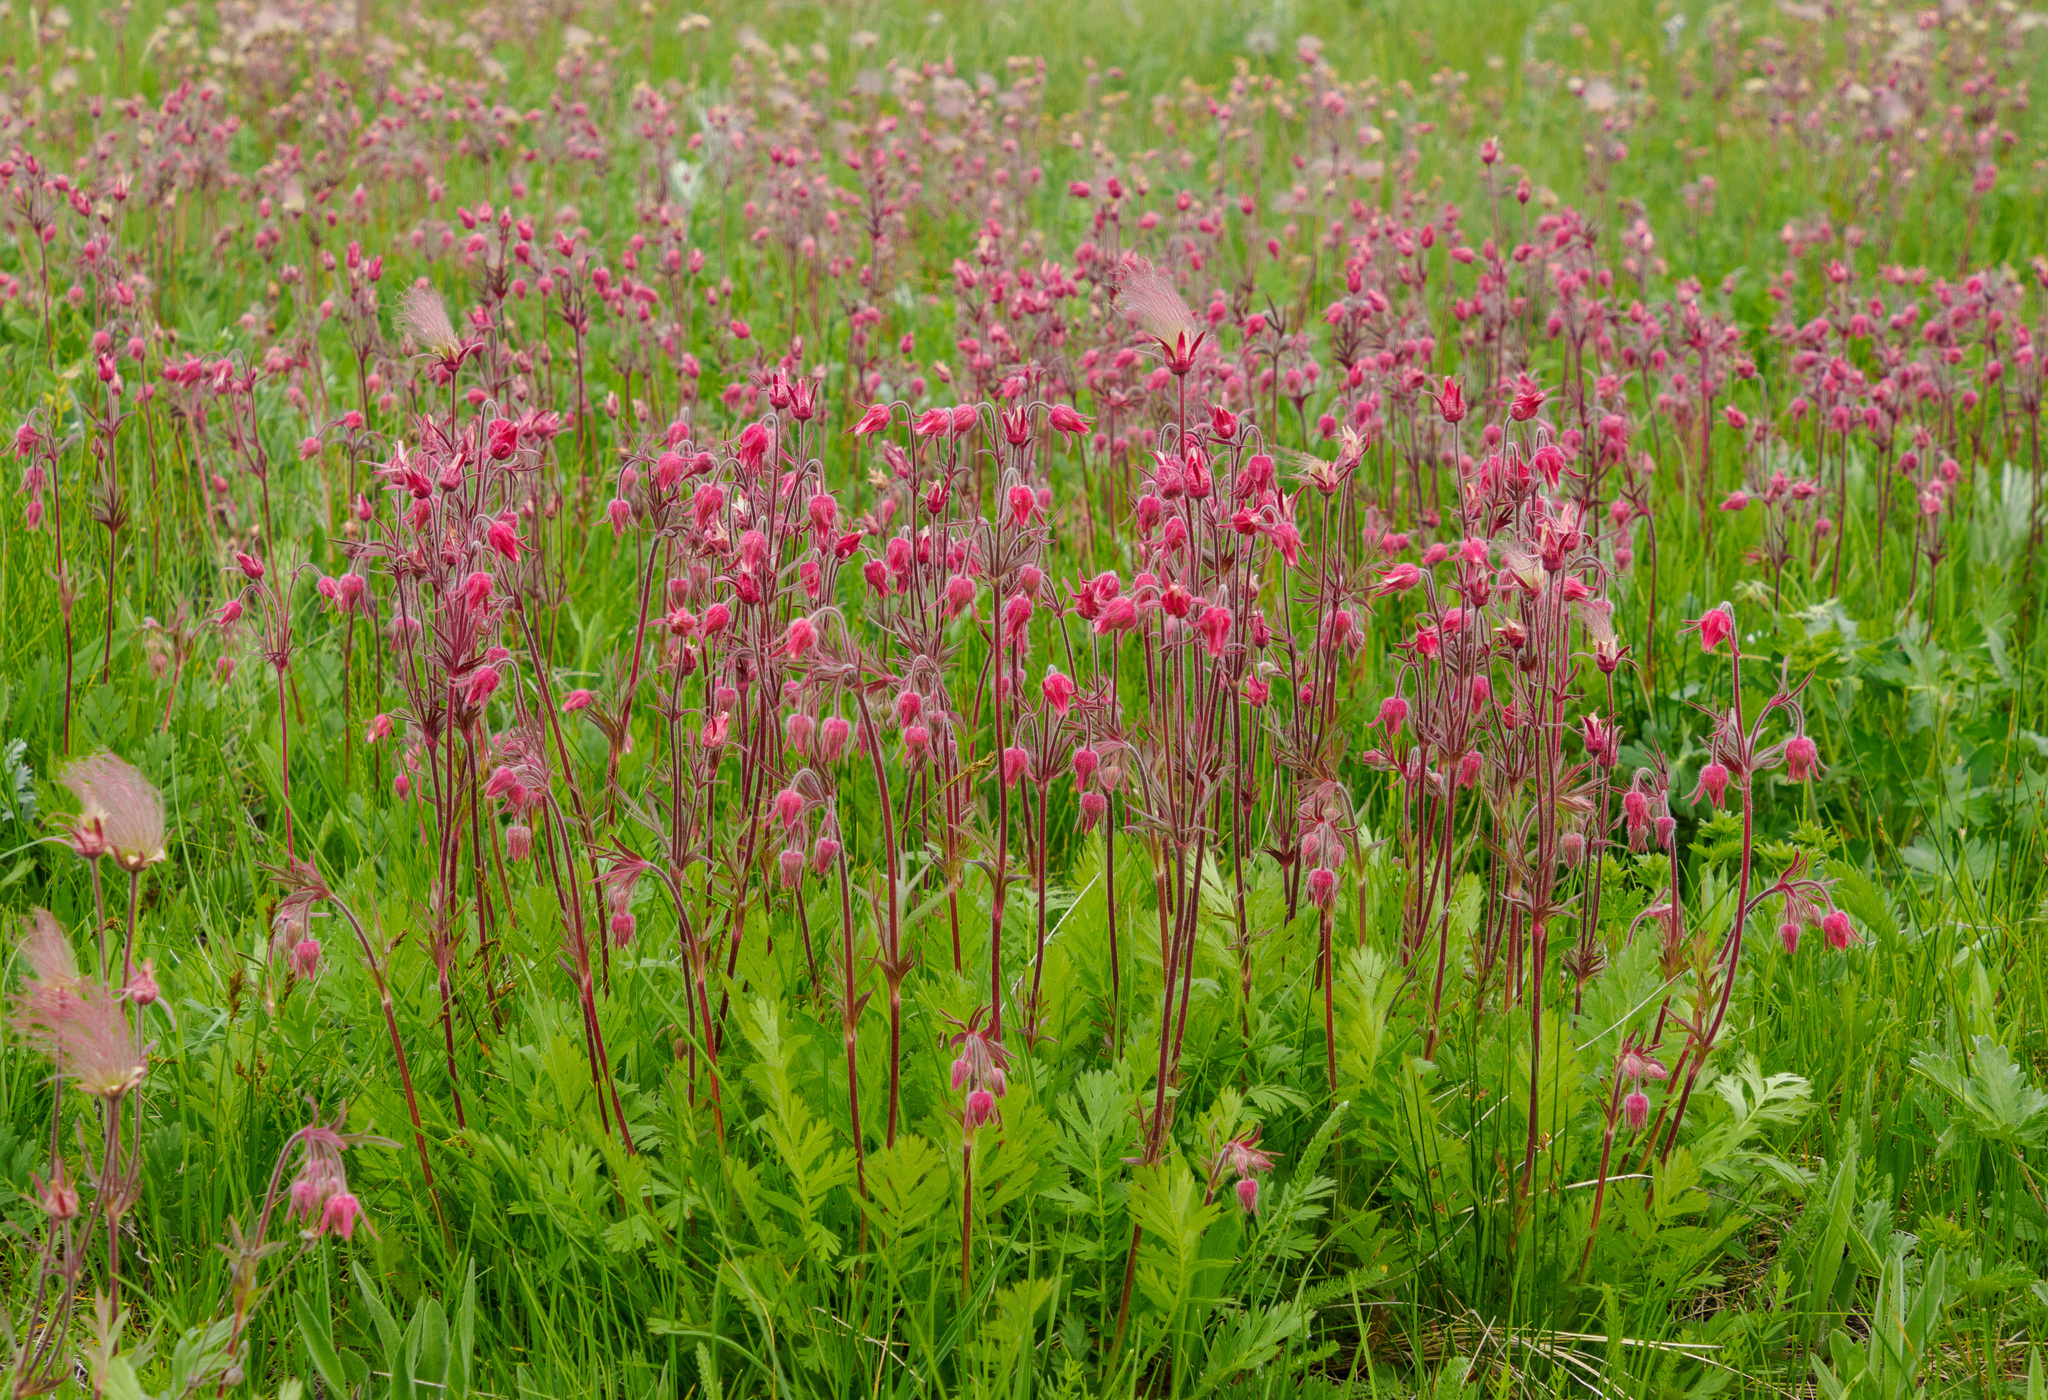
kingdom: Plantae
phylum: Tracheophyta
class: Magnoliopsida
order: Rosales
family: Rosaceae
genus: Geum
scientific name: Geum triflorum
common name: Old man's whiskers
